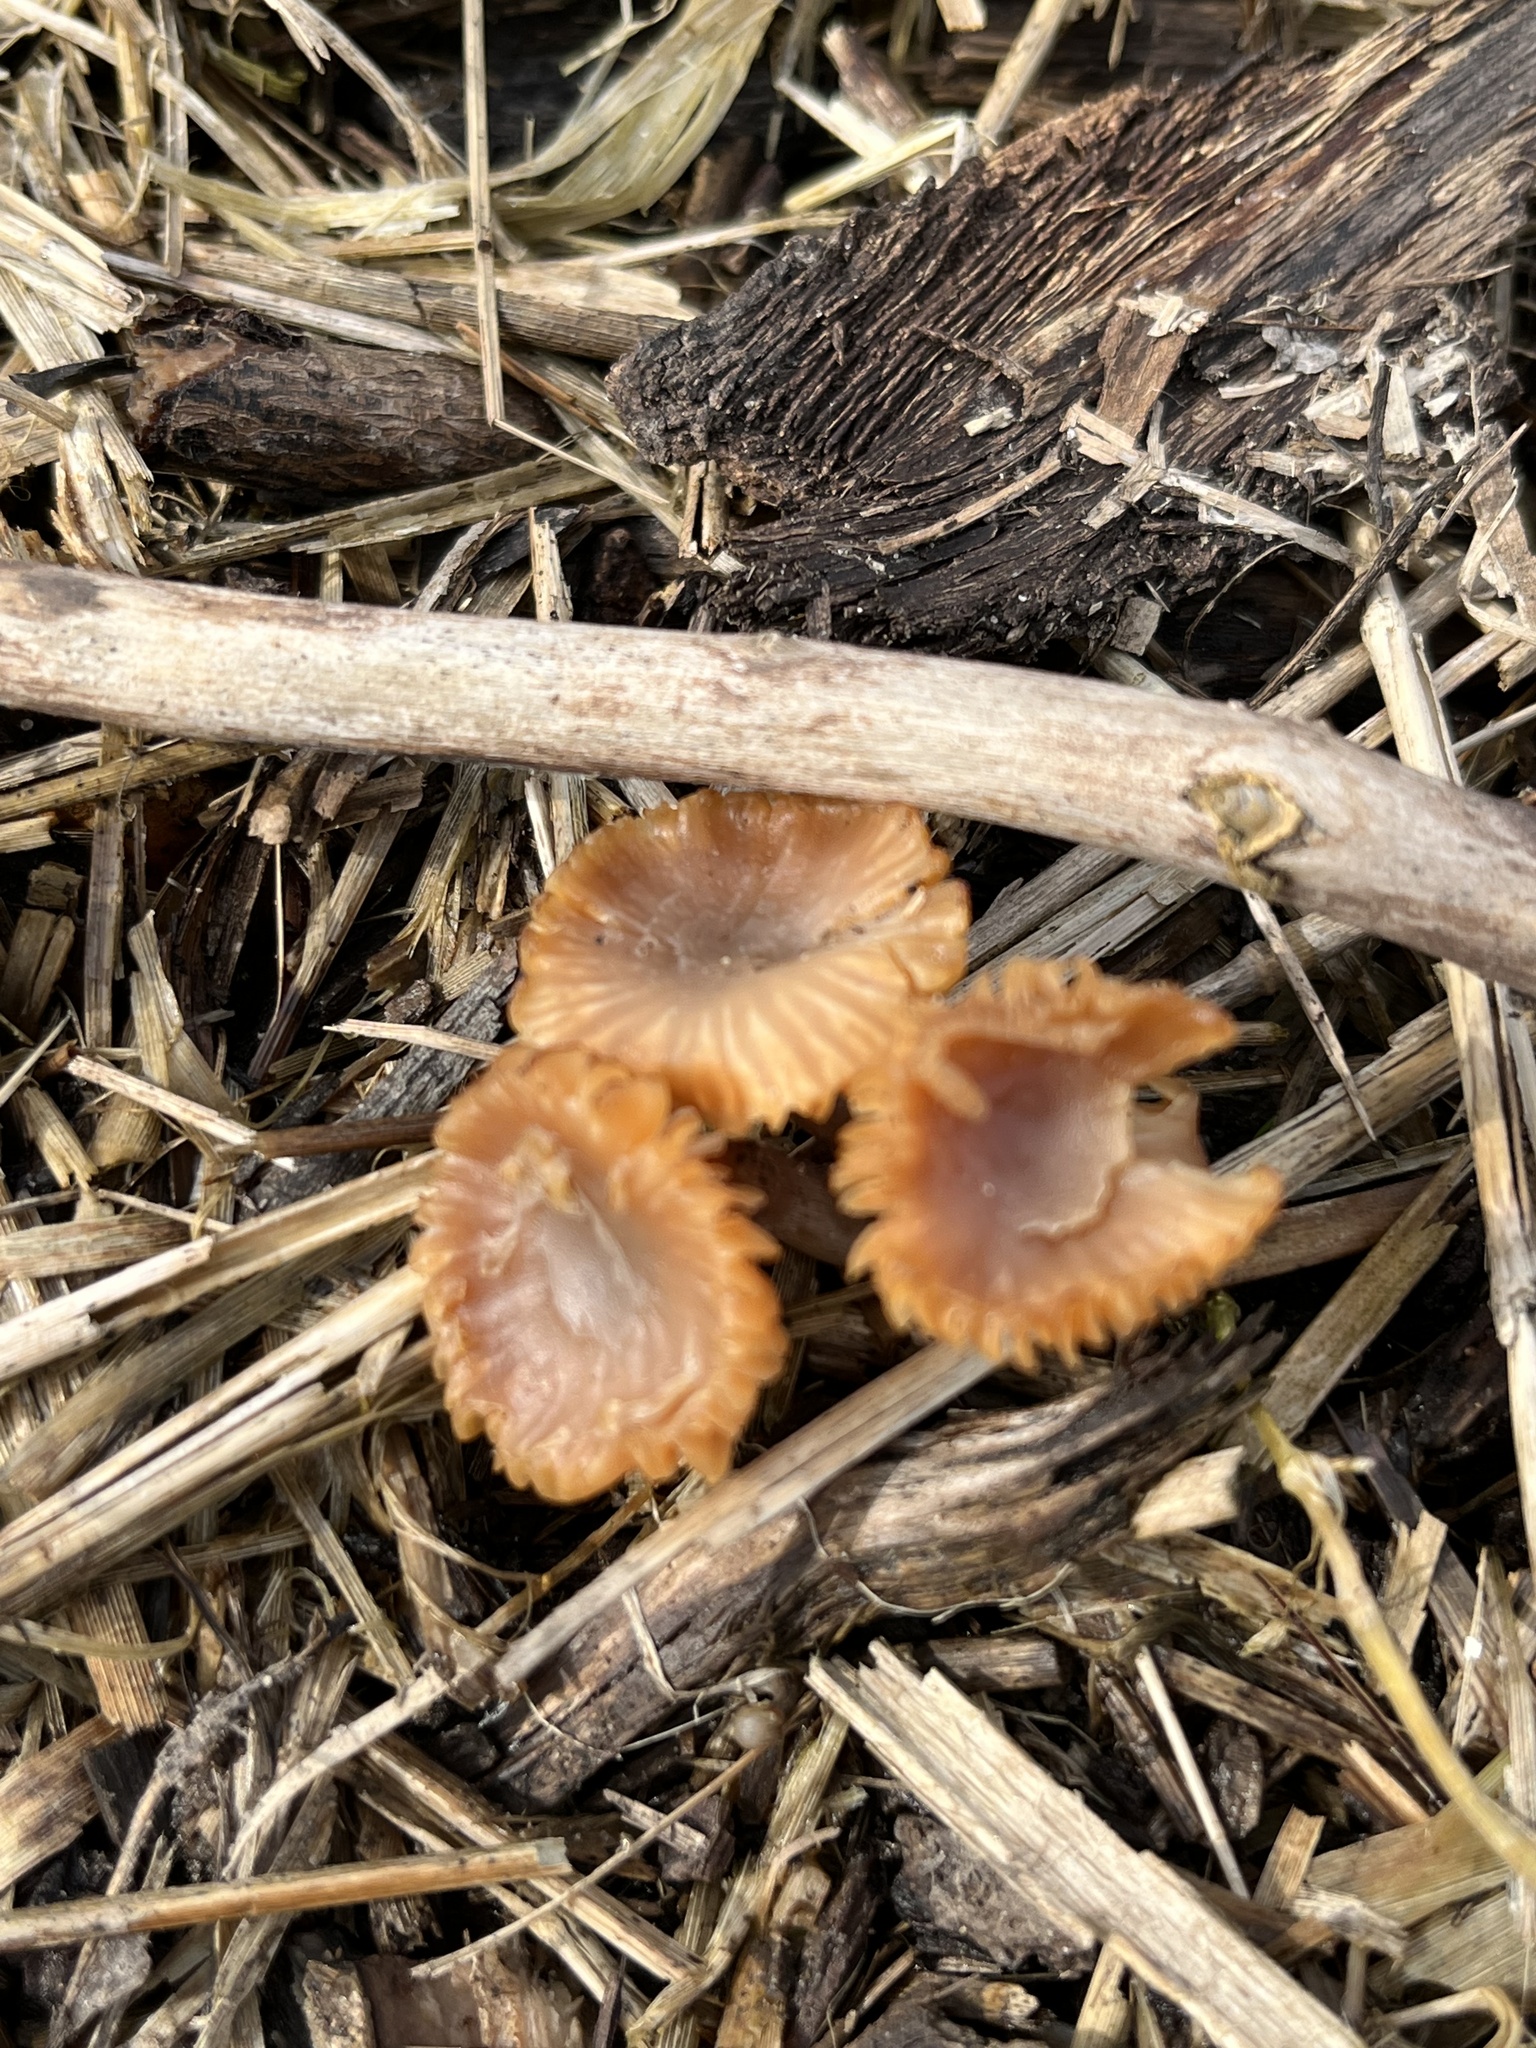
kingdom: Fungi
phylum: Basidiomycota
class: Agaricomycetes
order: Agaricales
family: Tubariaceae
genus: Tubaria
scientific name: Tubaria furfuracea
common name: Scurfy twiglet
